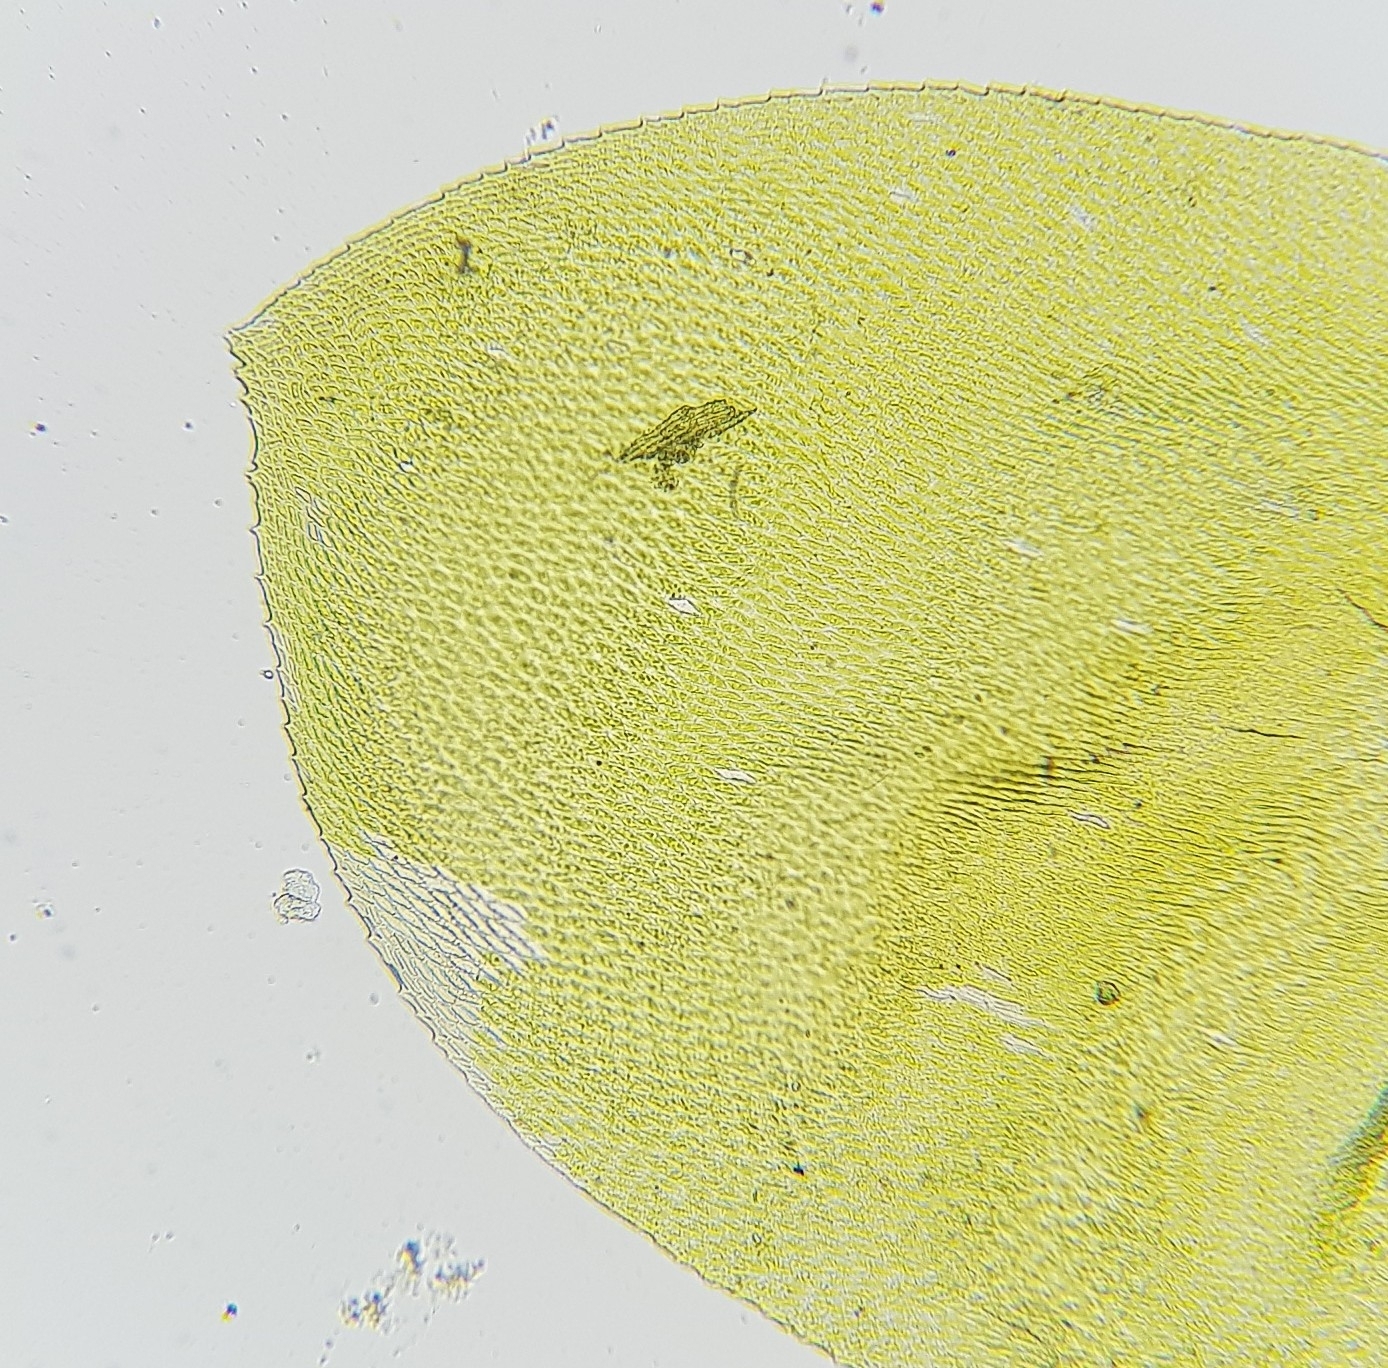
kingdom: Plantae
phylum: Bryophyta
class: Bryopsida
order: Hypnales
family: Neckeraceae
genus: Exsertotheca
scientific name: Exsertotheca crispa
